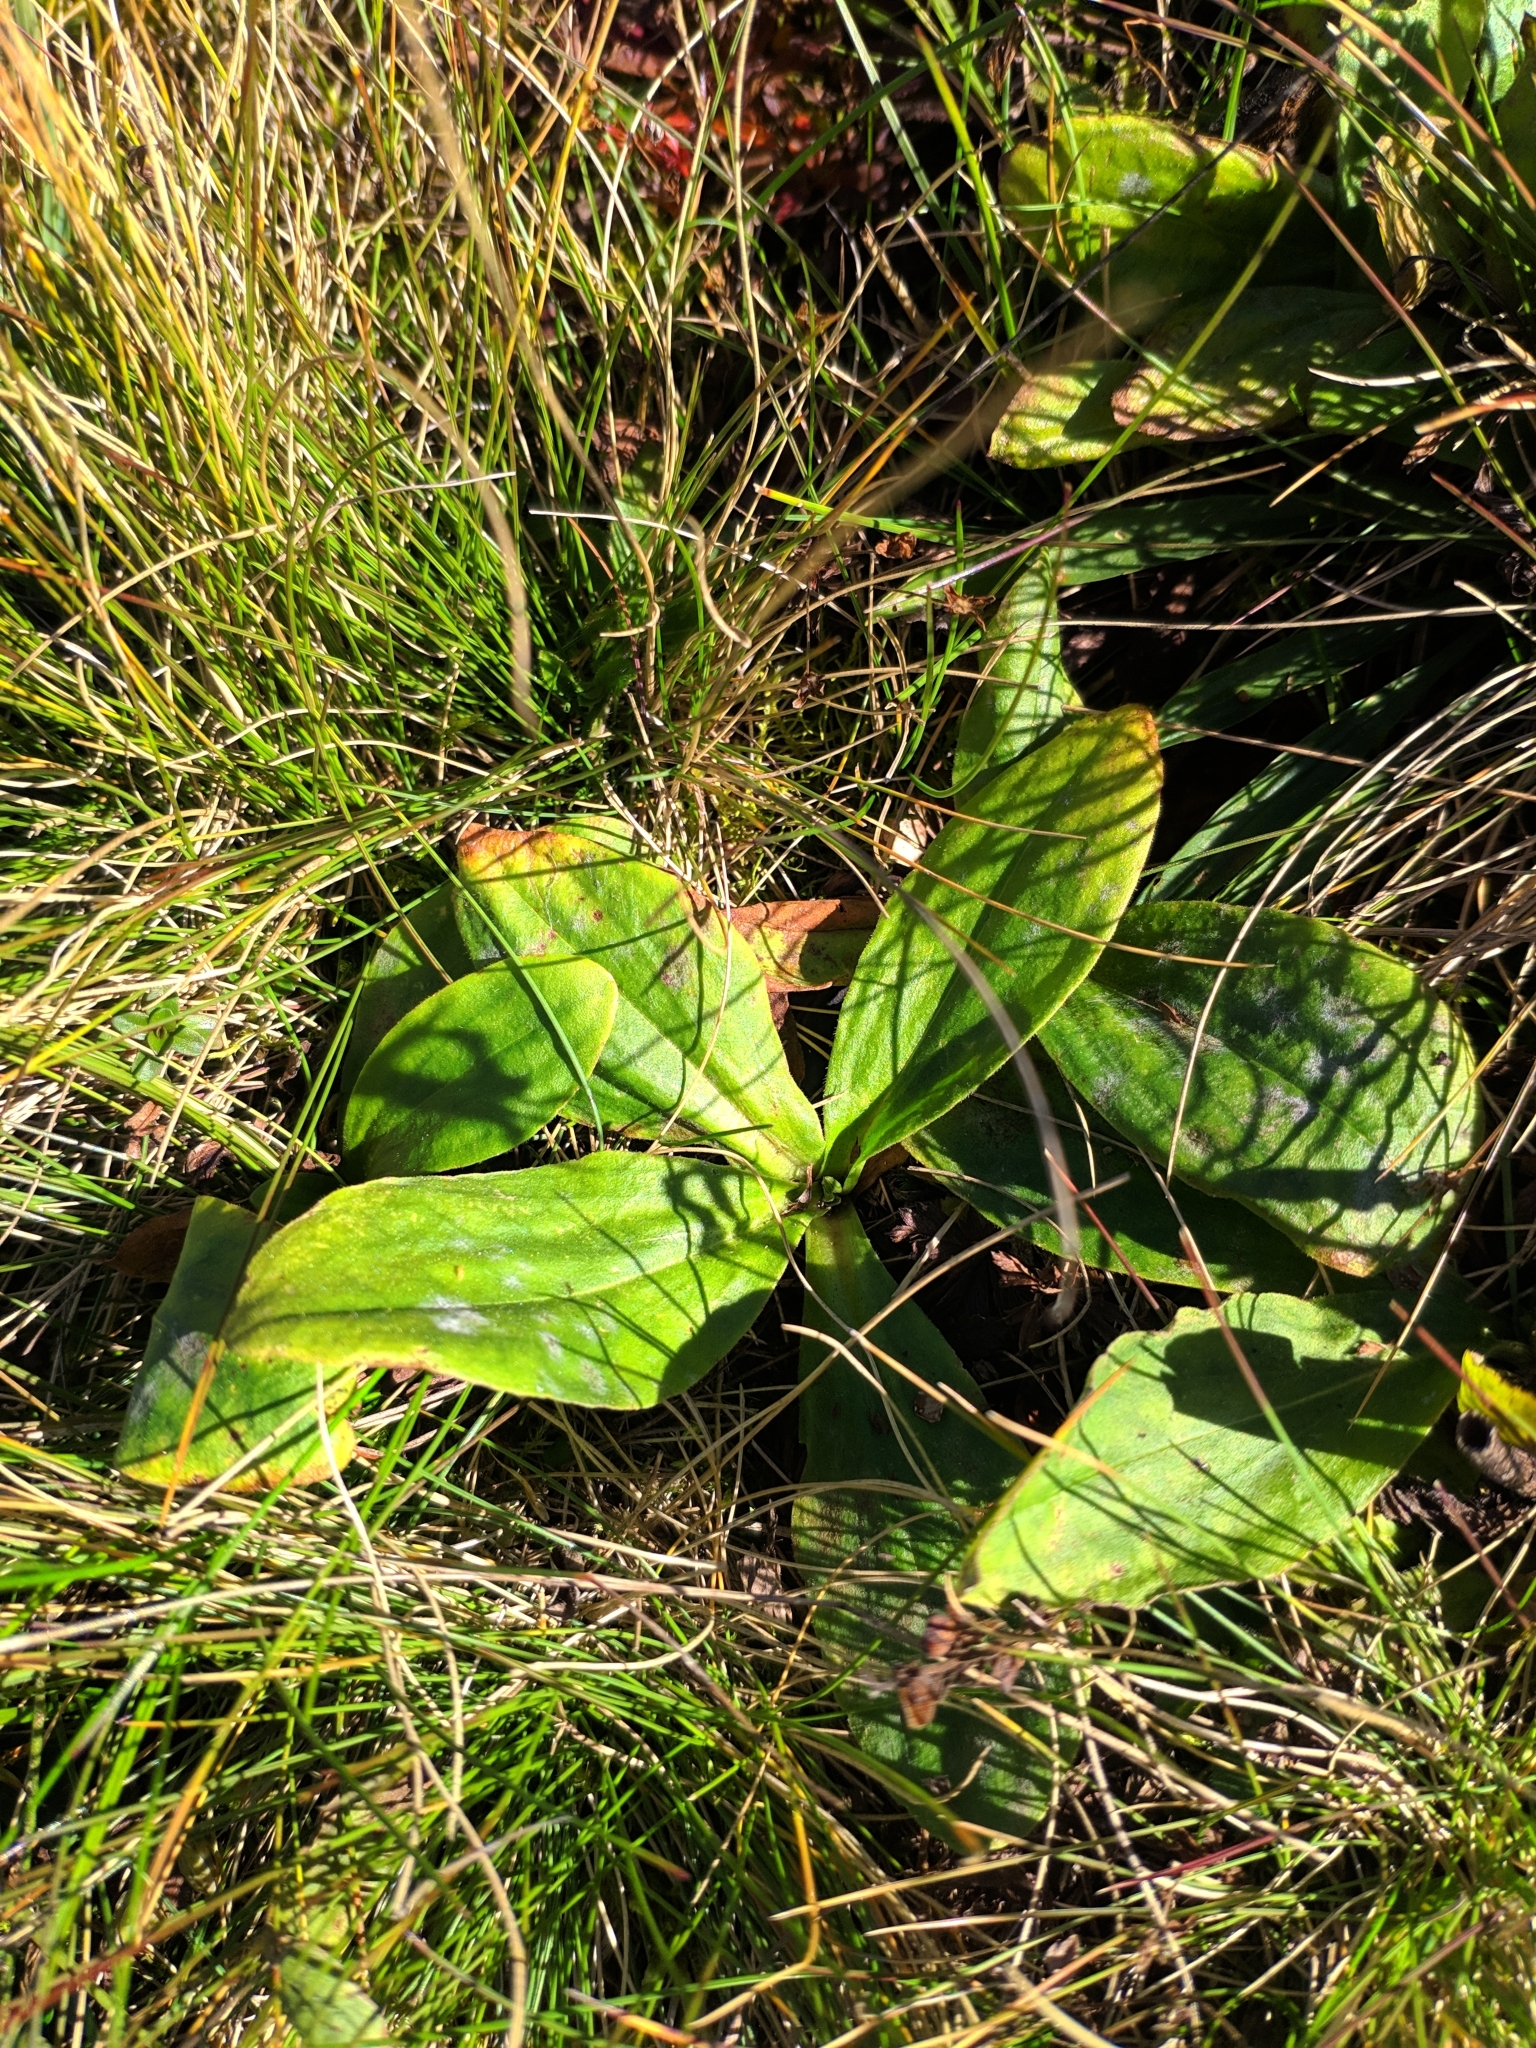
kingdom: Plantae
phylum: Tracheophyta
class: Magnoliopsida
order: Asterales
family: Asteraceae
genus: Arnica
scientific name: Arnica montana
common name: Leopard's bane
